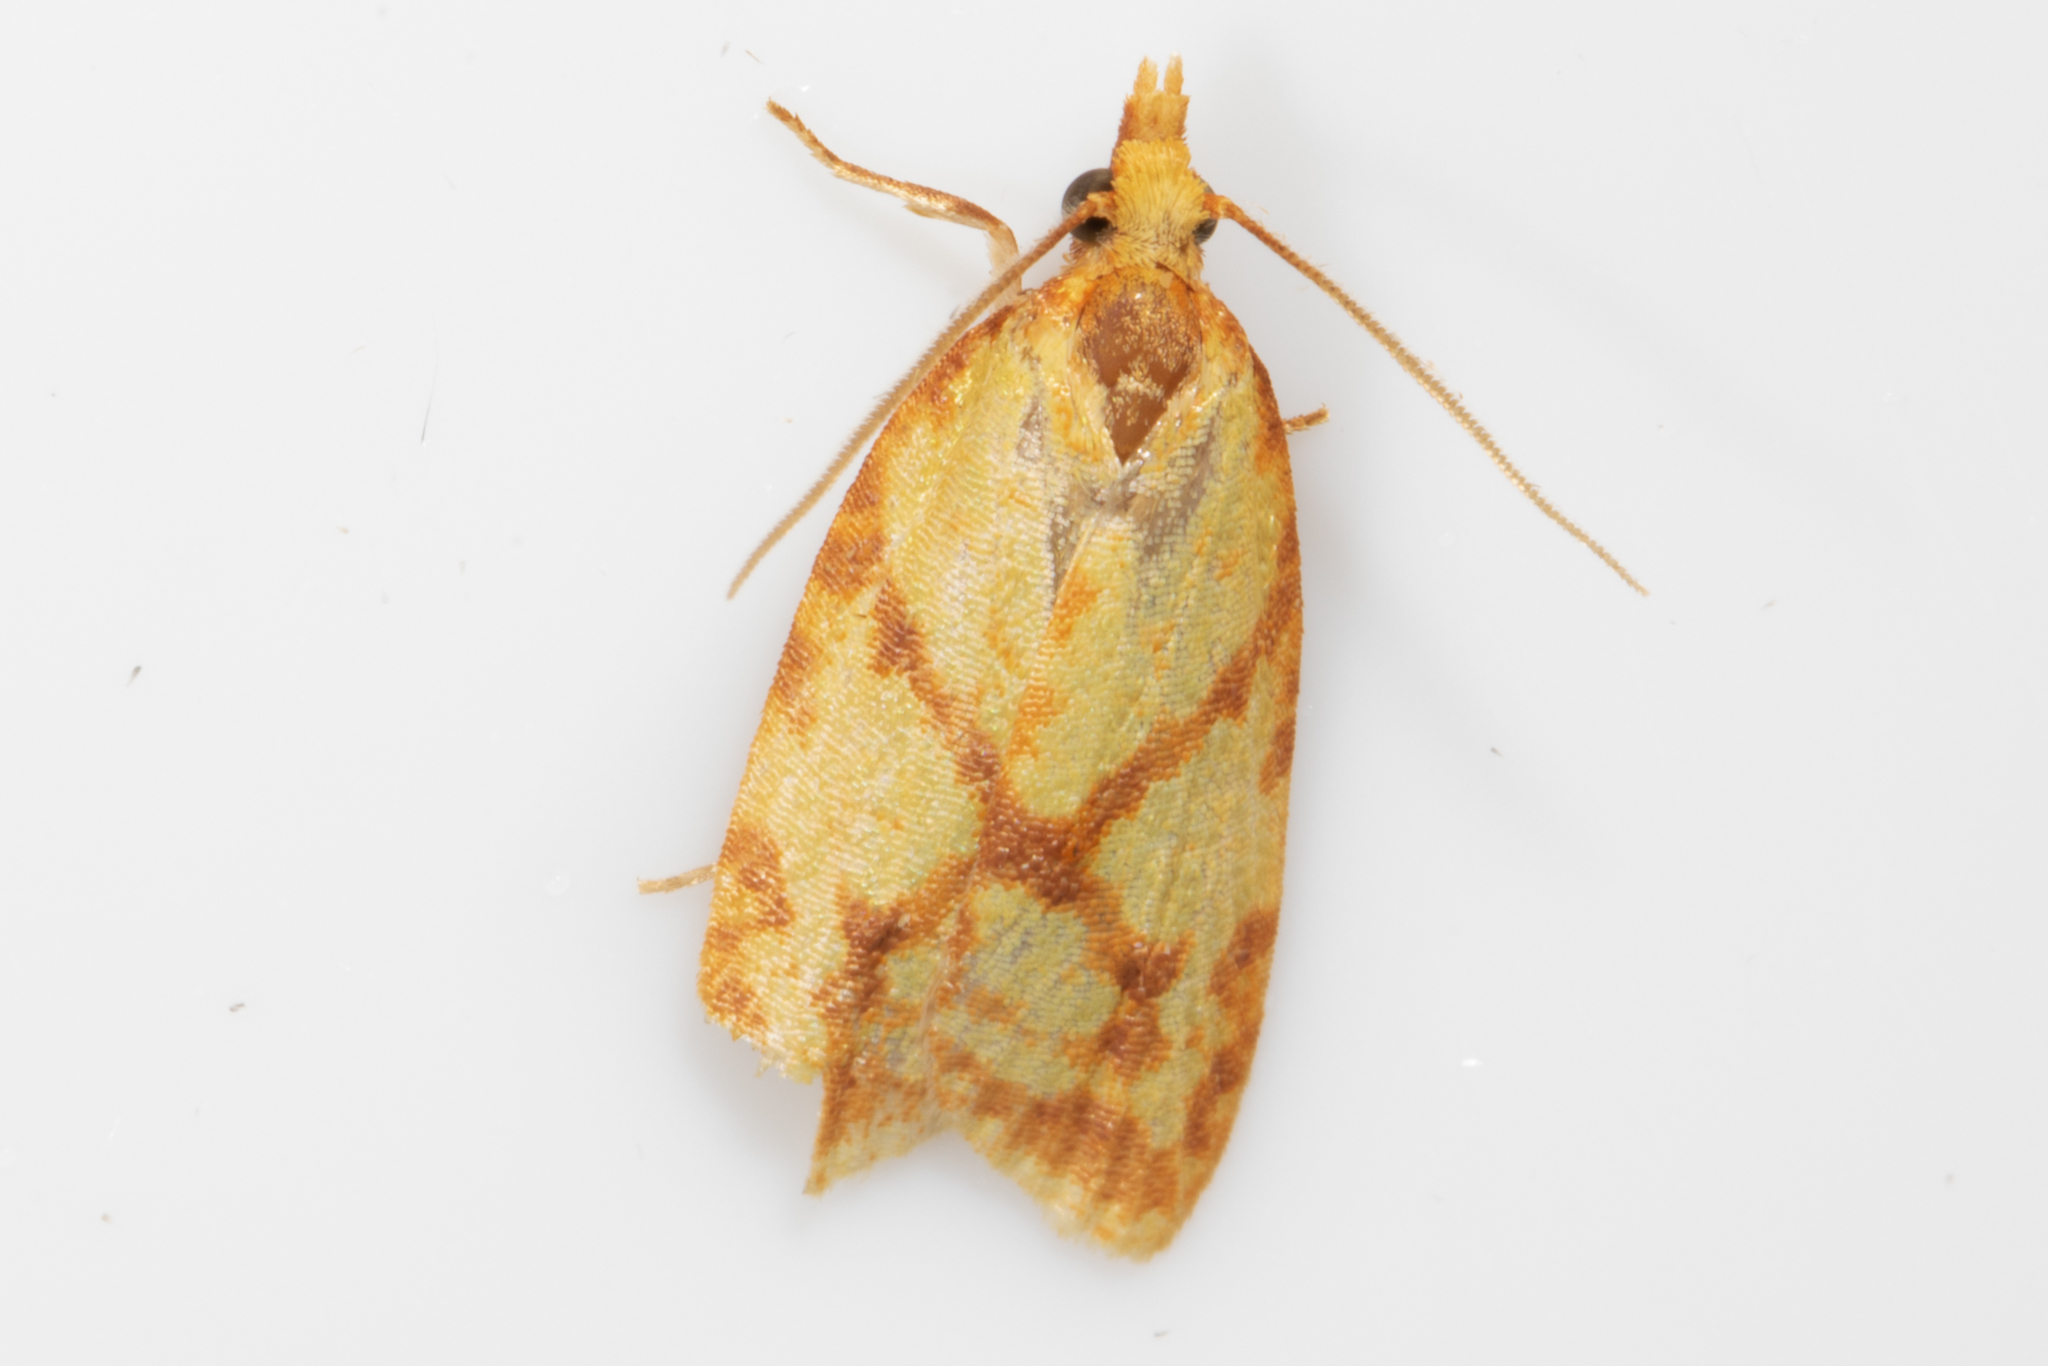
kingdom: Animalia
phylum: Arthropoda
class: Insecta
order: Lepidoptera
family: Tortricidae
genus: Sparganothis
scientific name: Sparganothis sulfureana
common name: Sparganothis fruitworm moth
